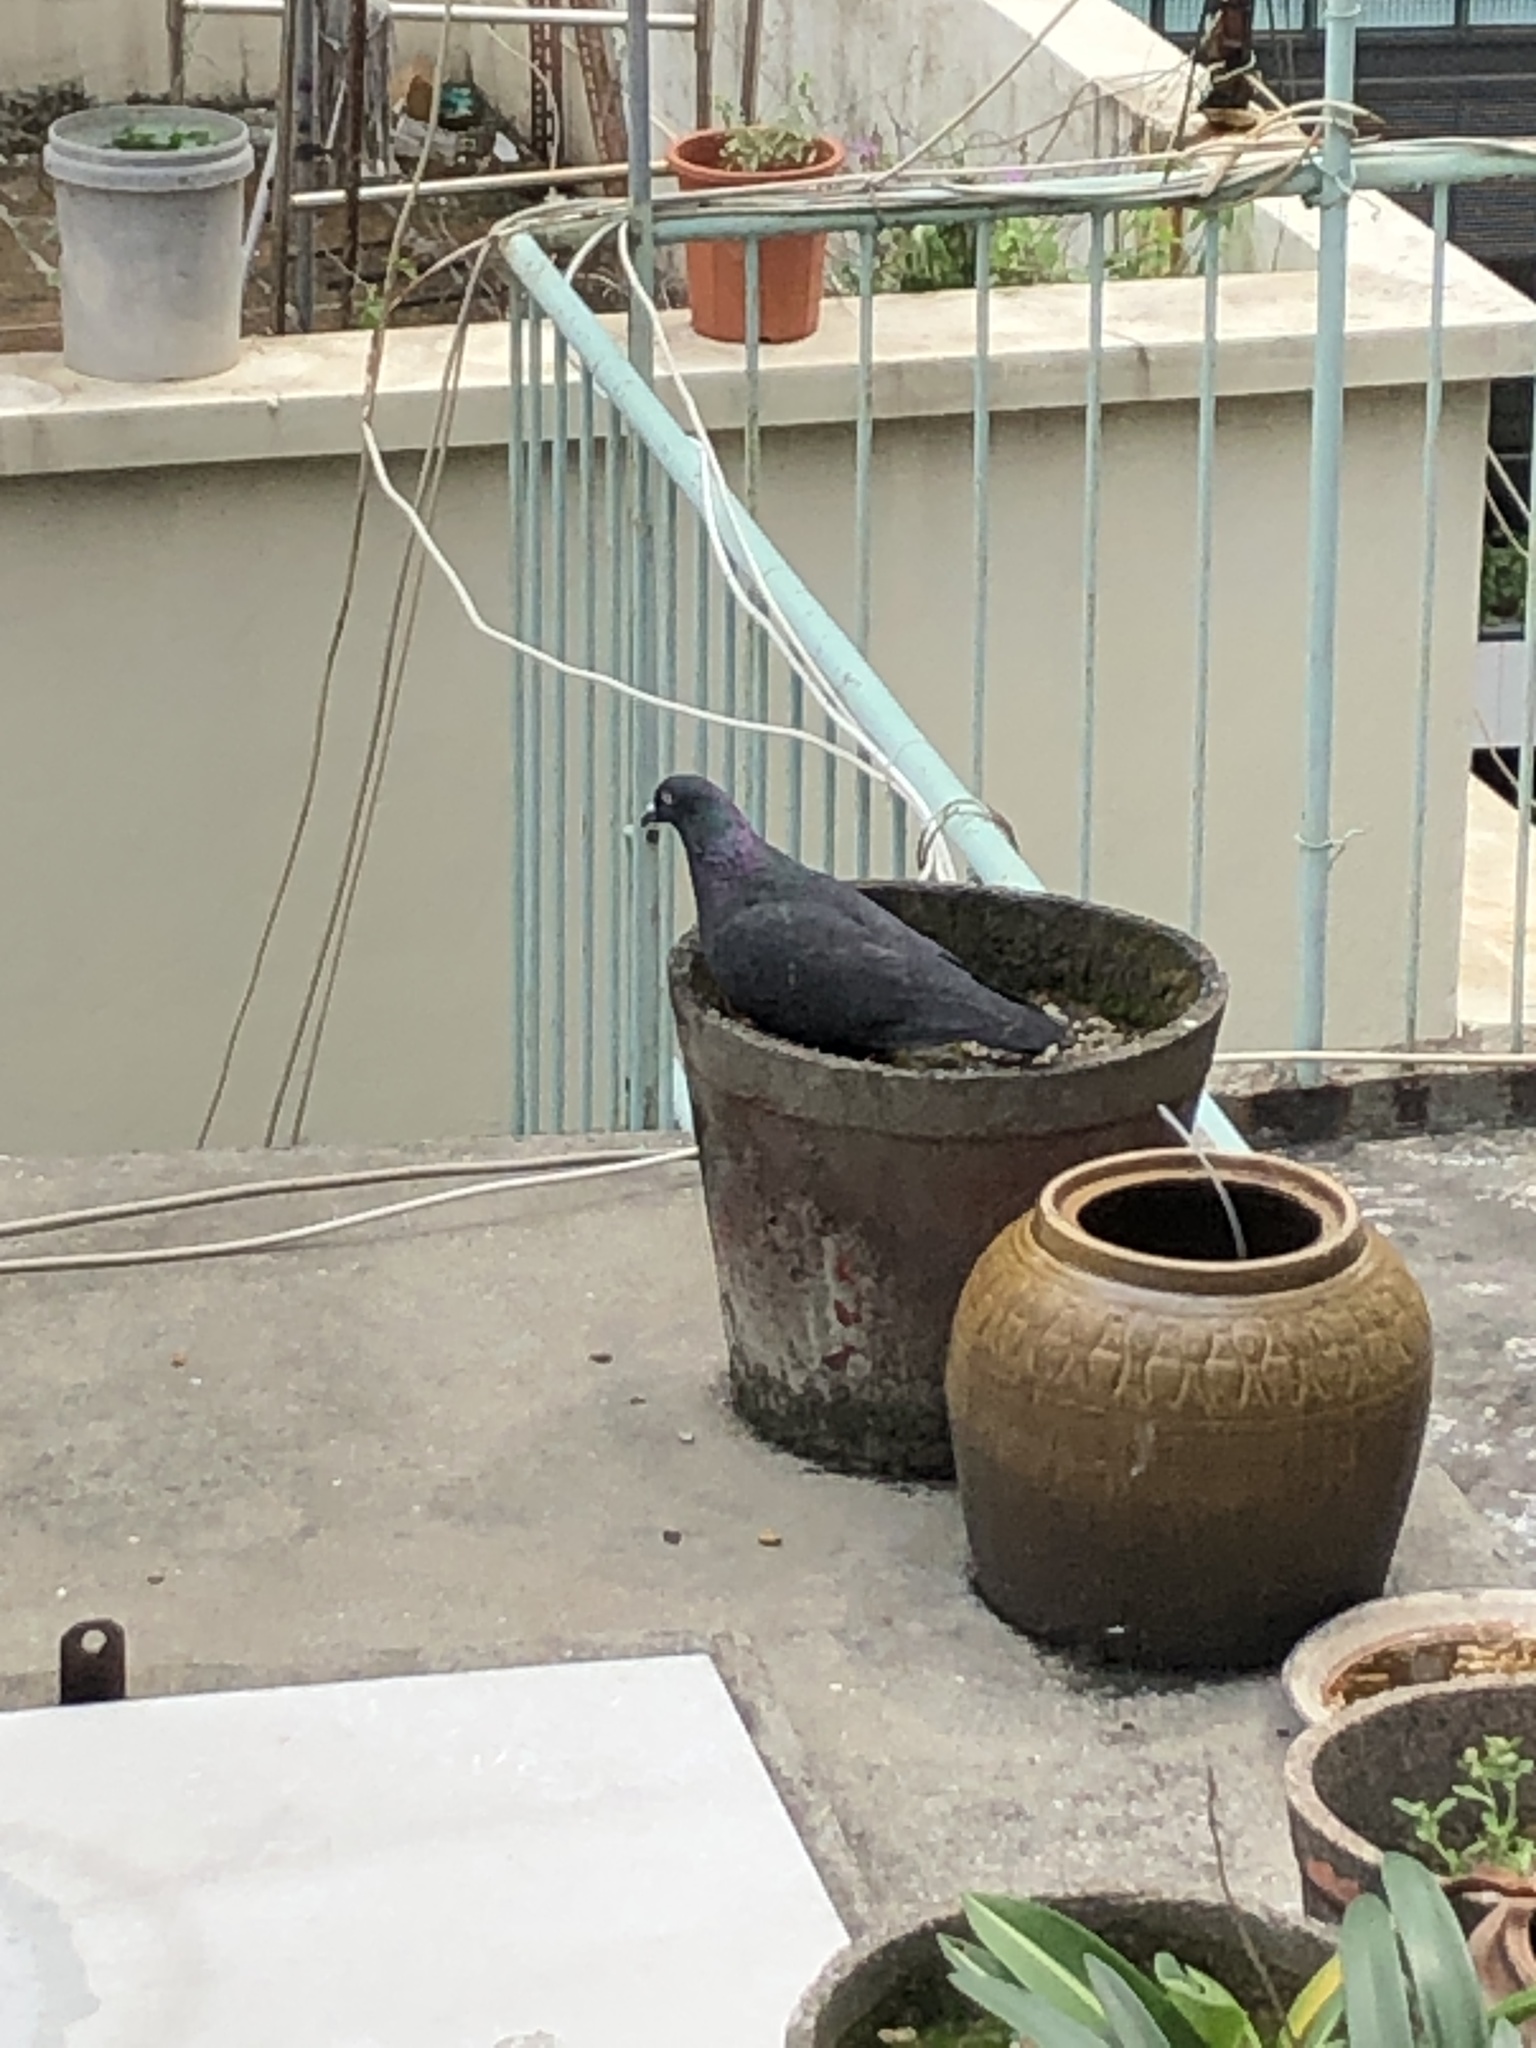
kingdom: Animalia
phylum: Chordata
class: Aves
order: Columbiformes
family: Columbidae
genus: Columba
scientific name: Columba livia
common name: Rock pigeon
